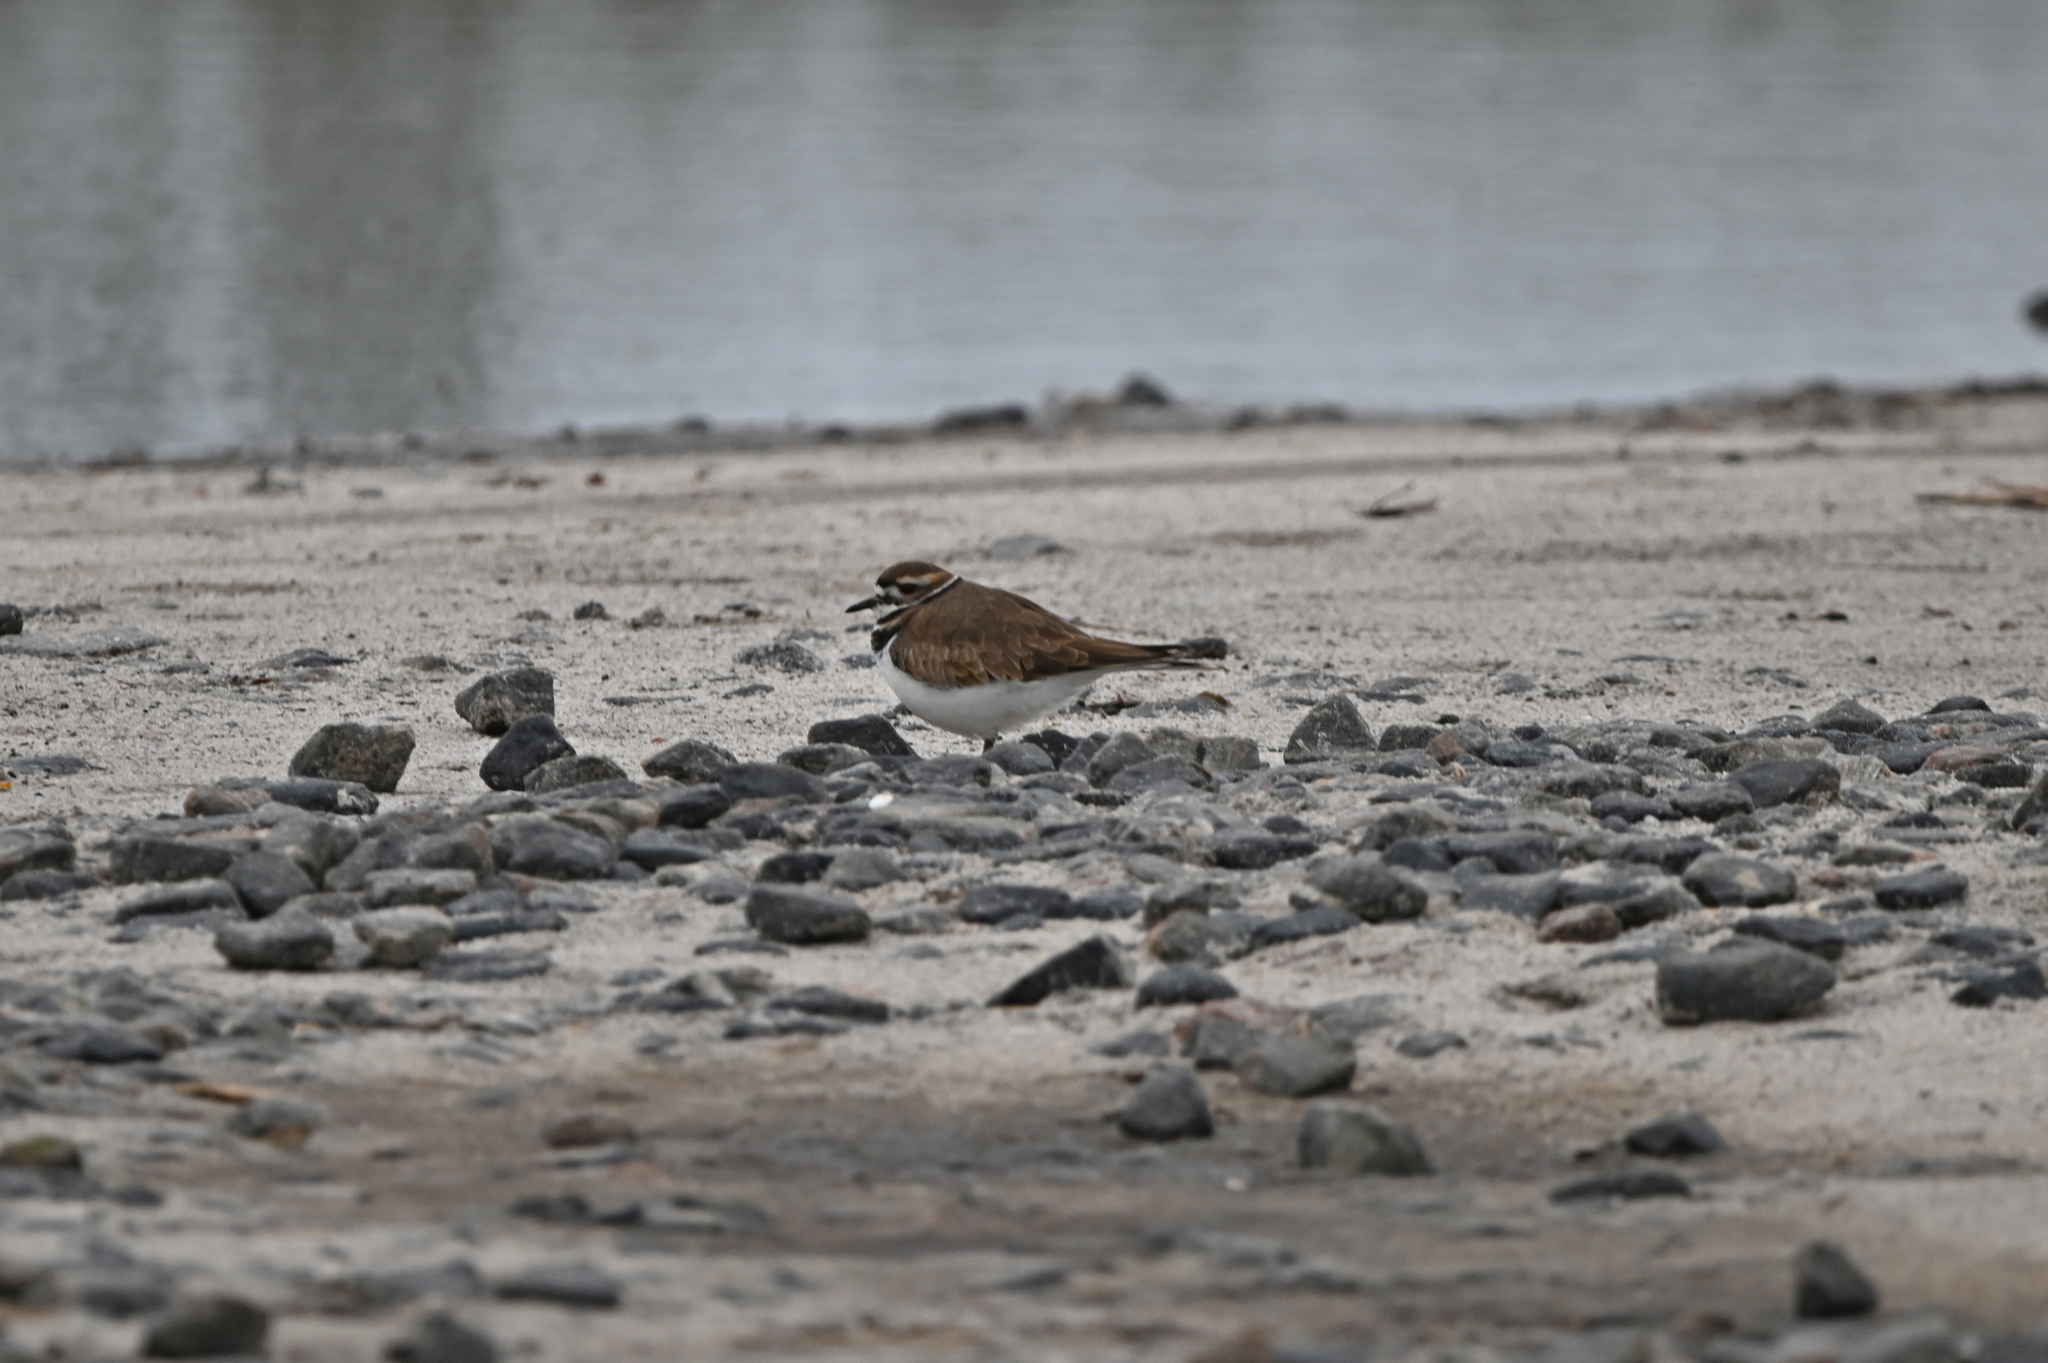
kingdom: Animalia
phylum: Chordata
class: Aves
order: Charadriiformes
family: Charadriidae
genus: Charadrius
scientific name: Charadrius vociferus
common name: Killdeer
